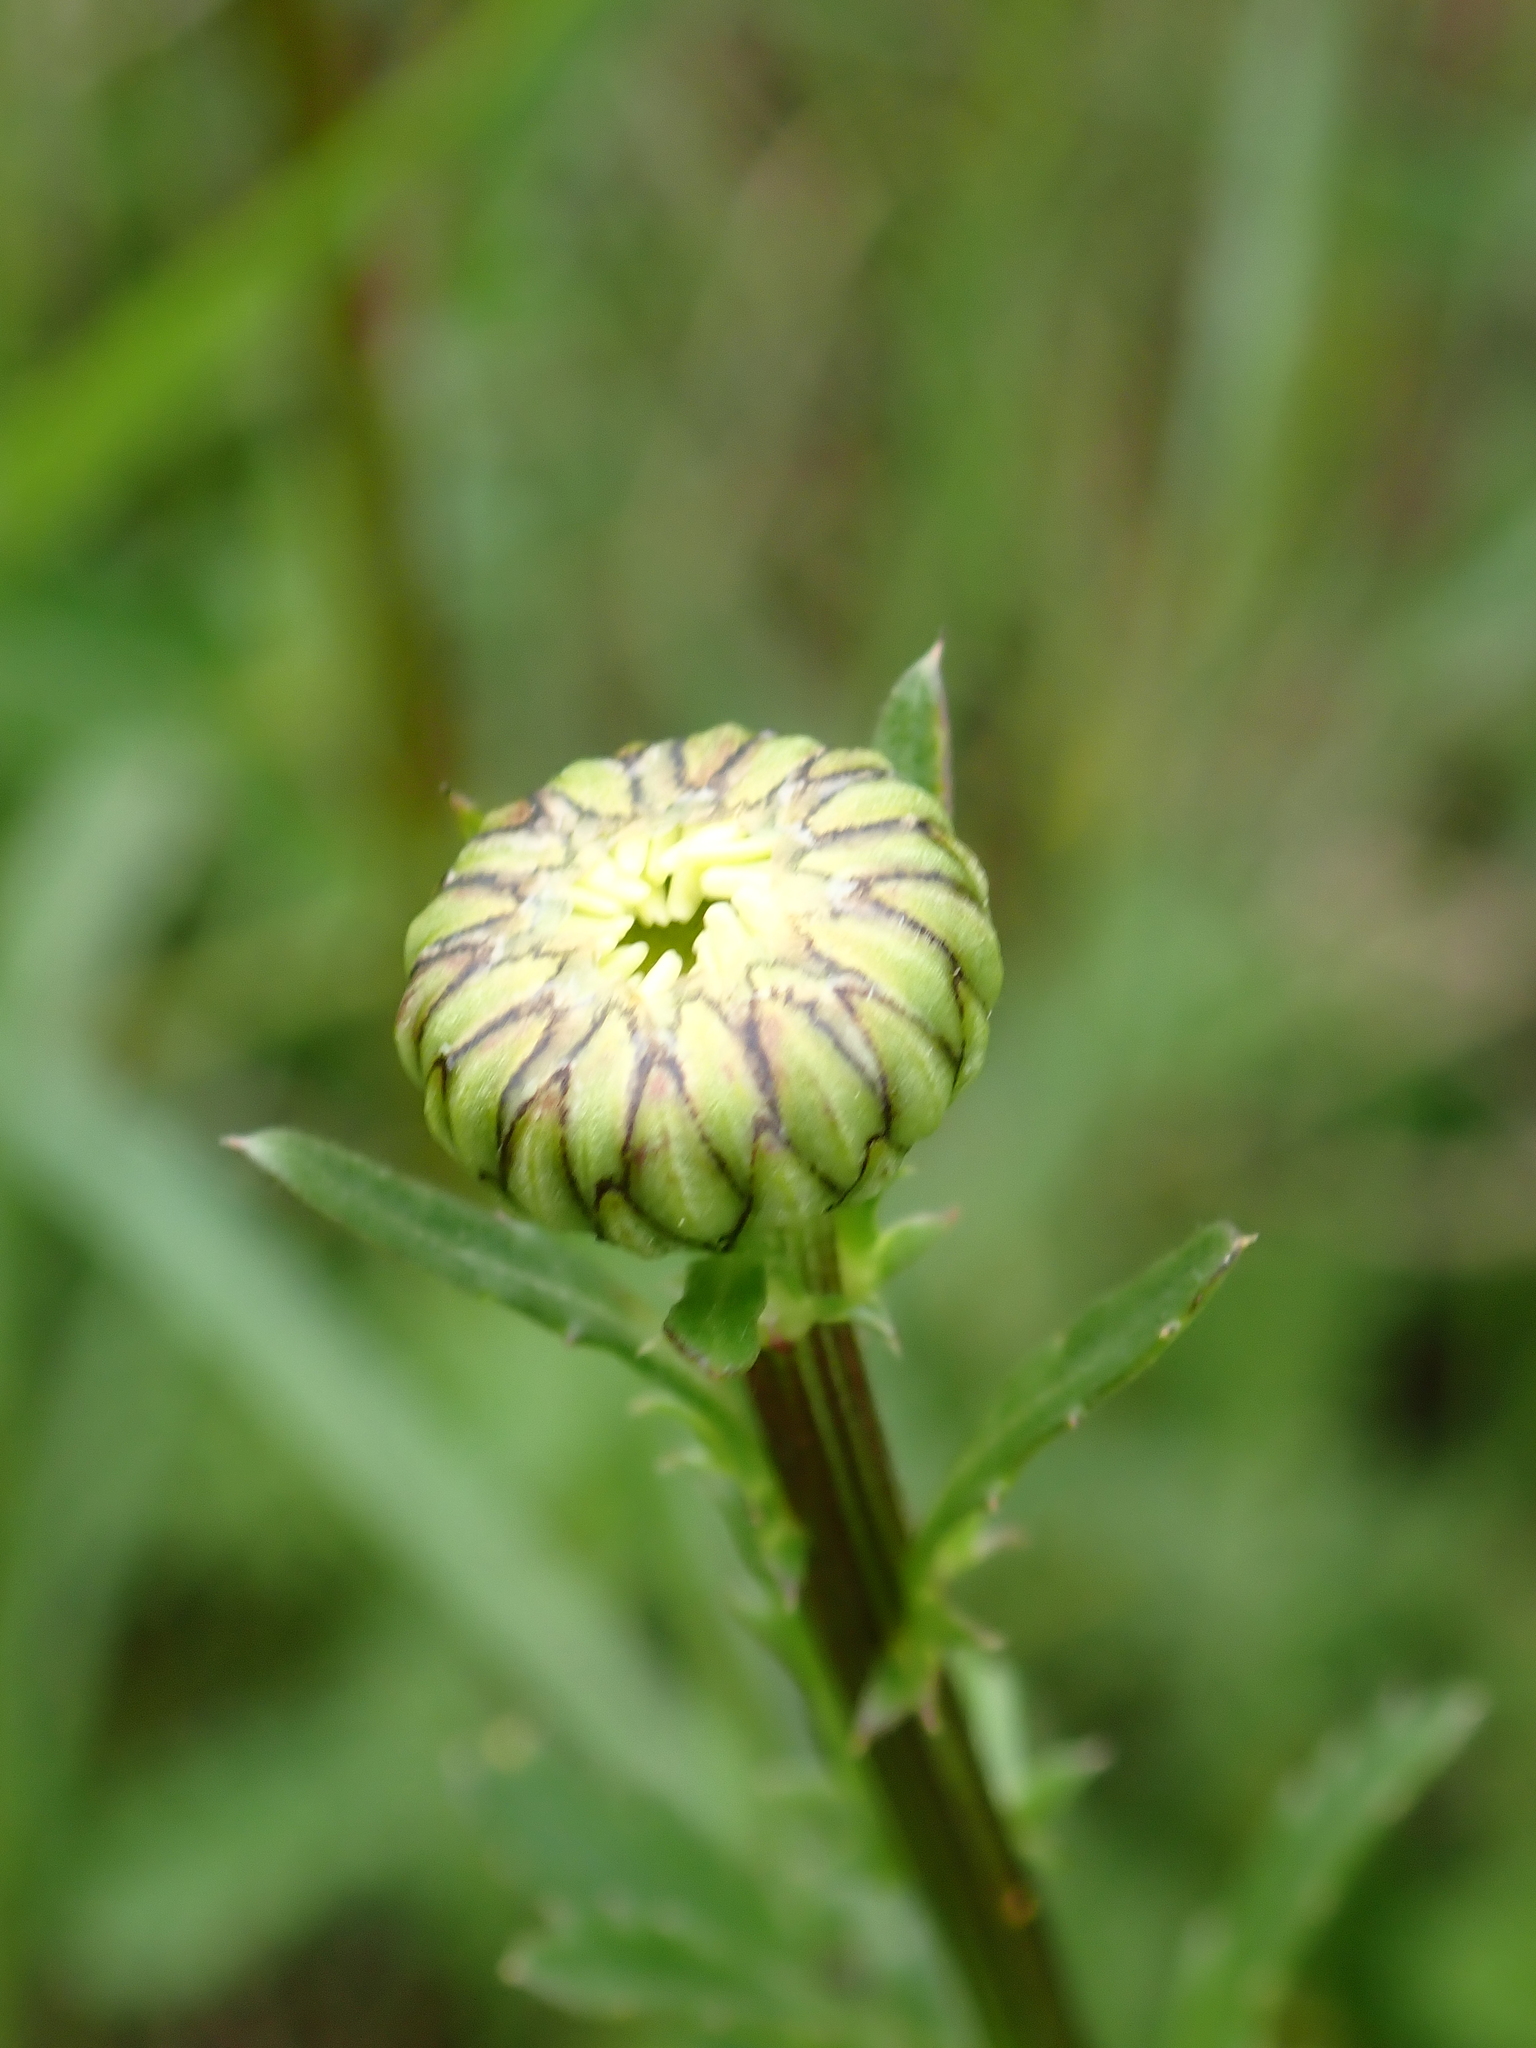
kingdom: Plantae
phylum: Tracheophyta
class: Magnoliopsida
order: Asterales
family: Asteraceae
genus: Leucanthemum
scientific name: Leucanthemum ircutianum
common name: Daisy
